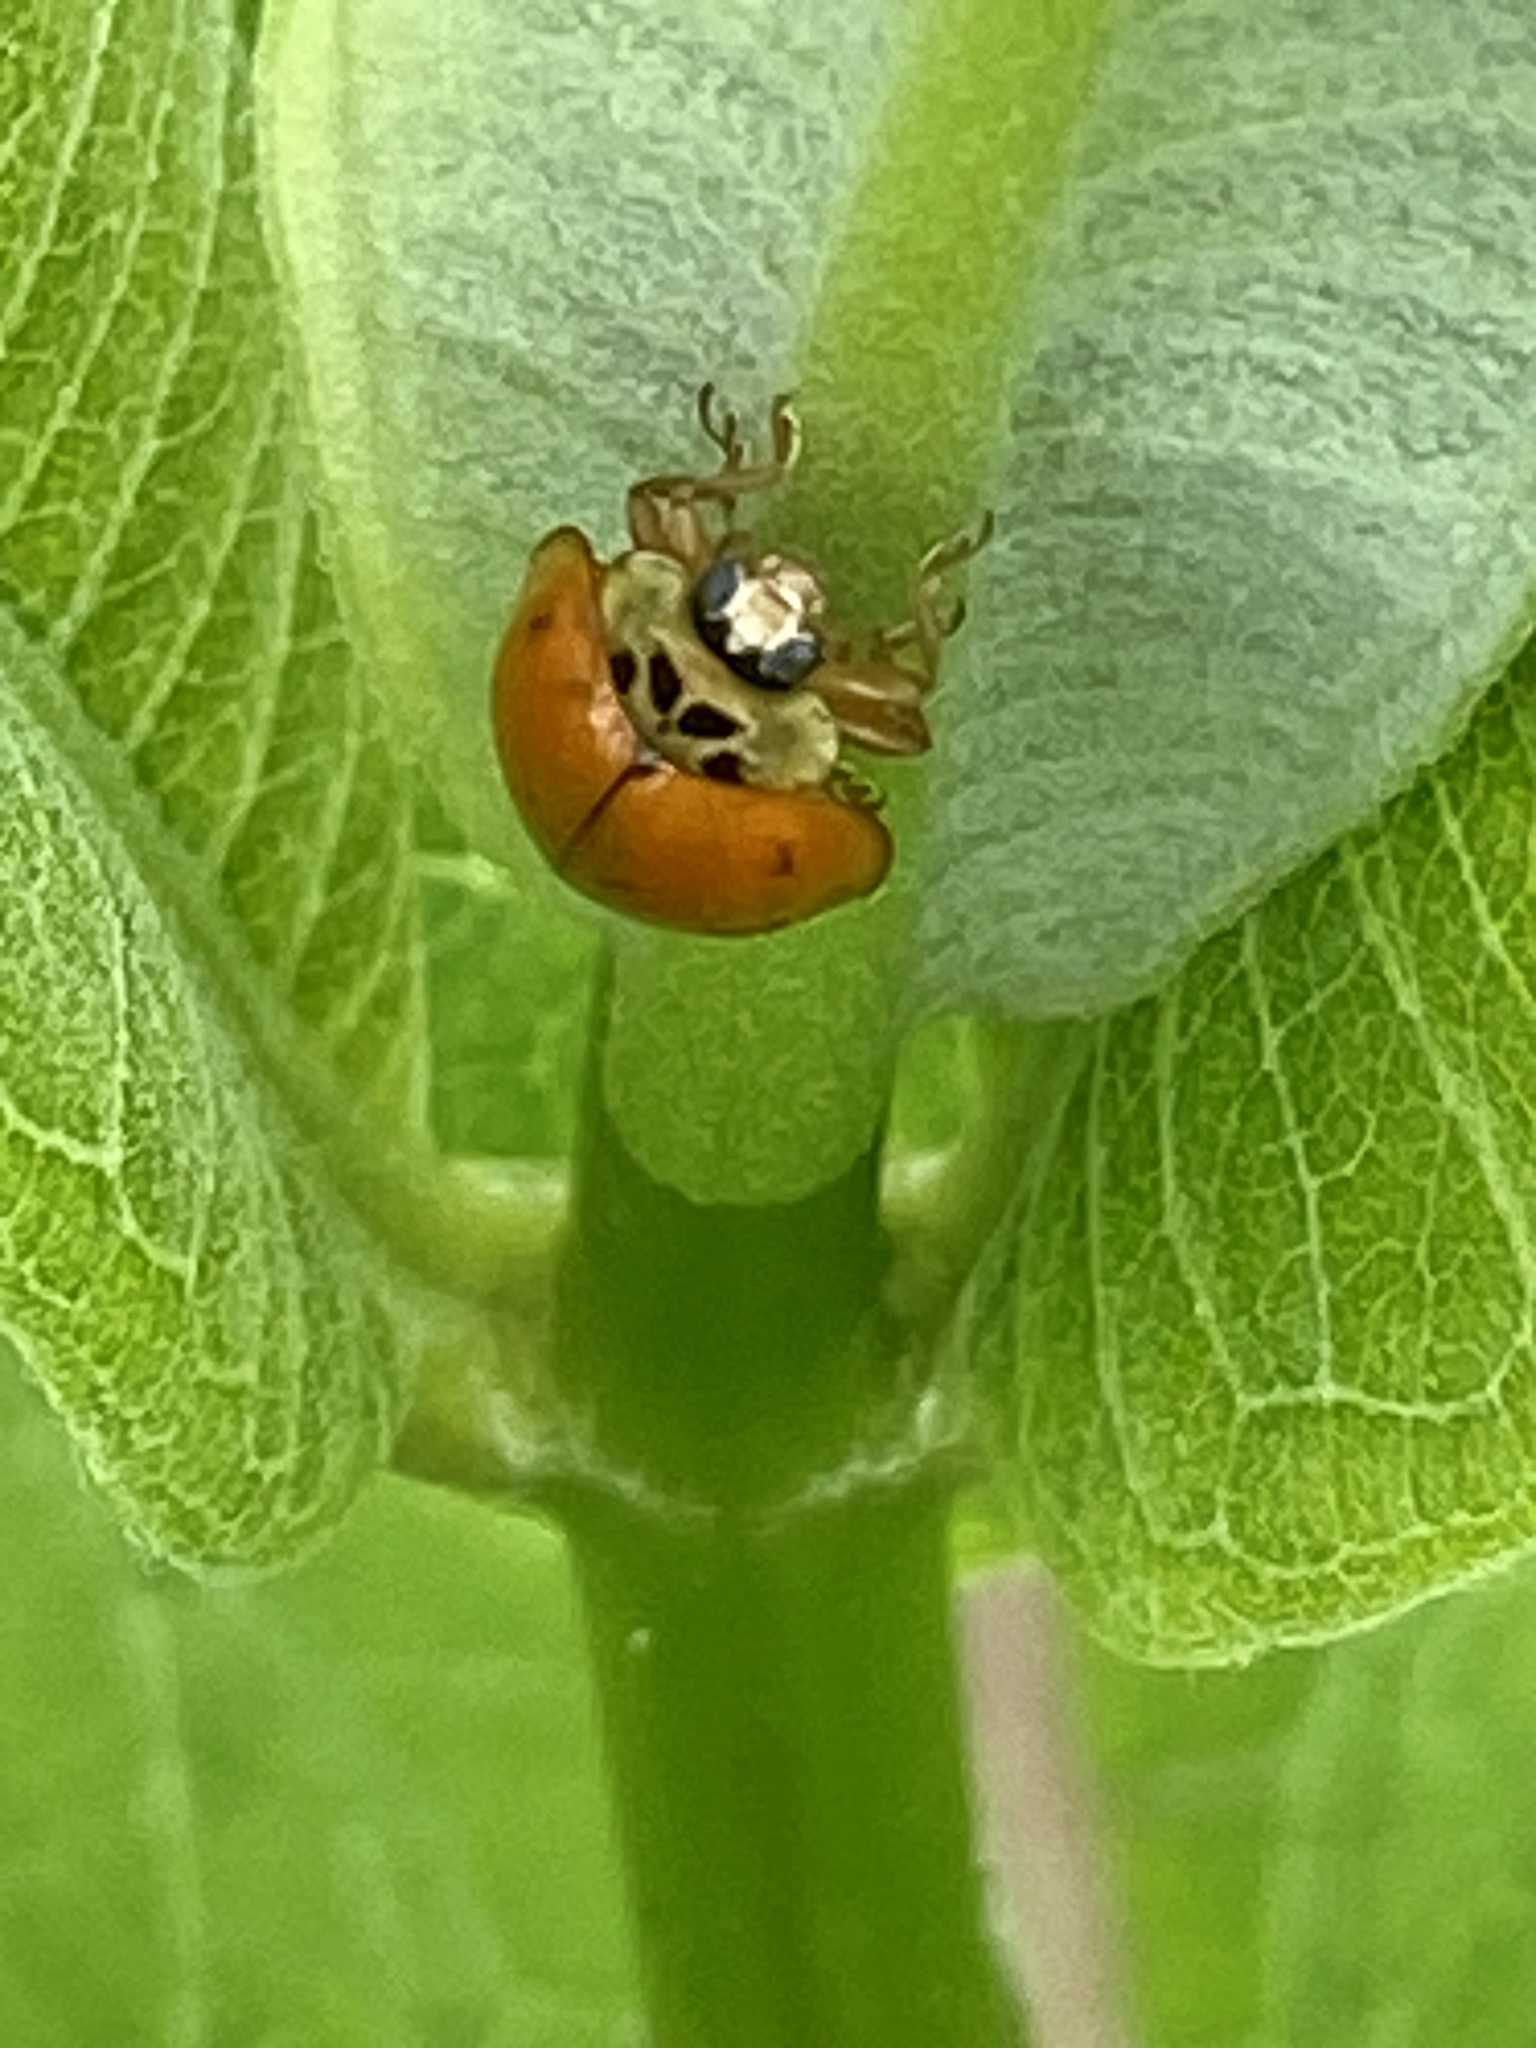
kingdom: Animalia
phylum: Arthropoda
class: Insecta
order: Coleoptera
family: Coccinellidae
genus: Harmonia
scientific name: Harmonia axyridis
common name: Harlequin ladybird
